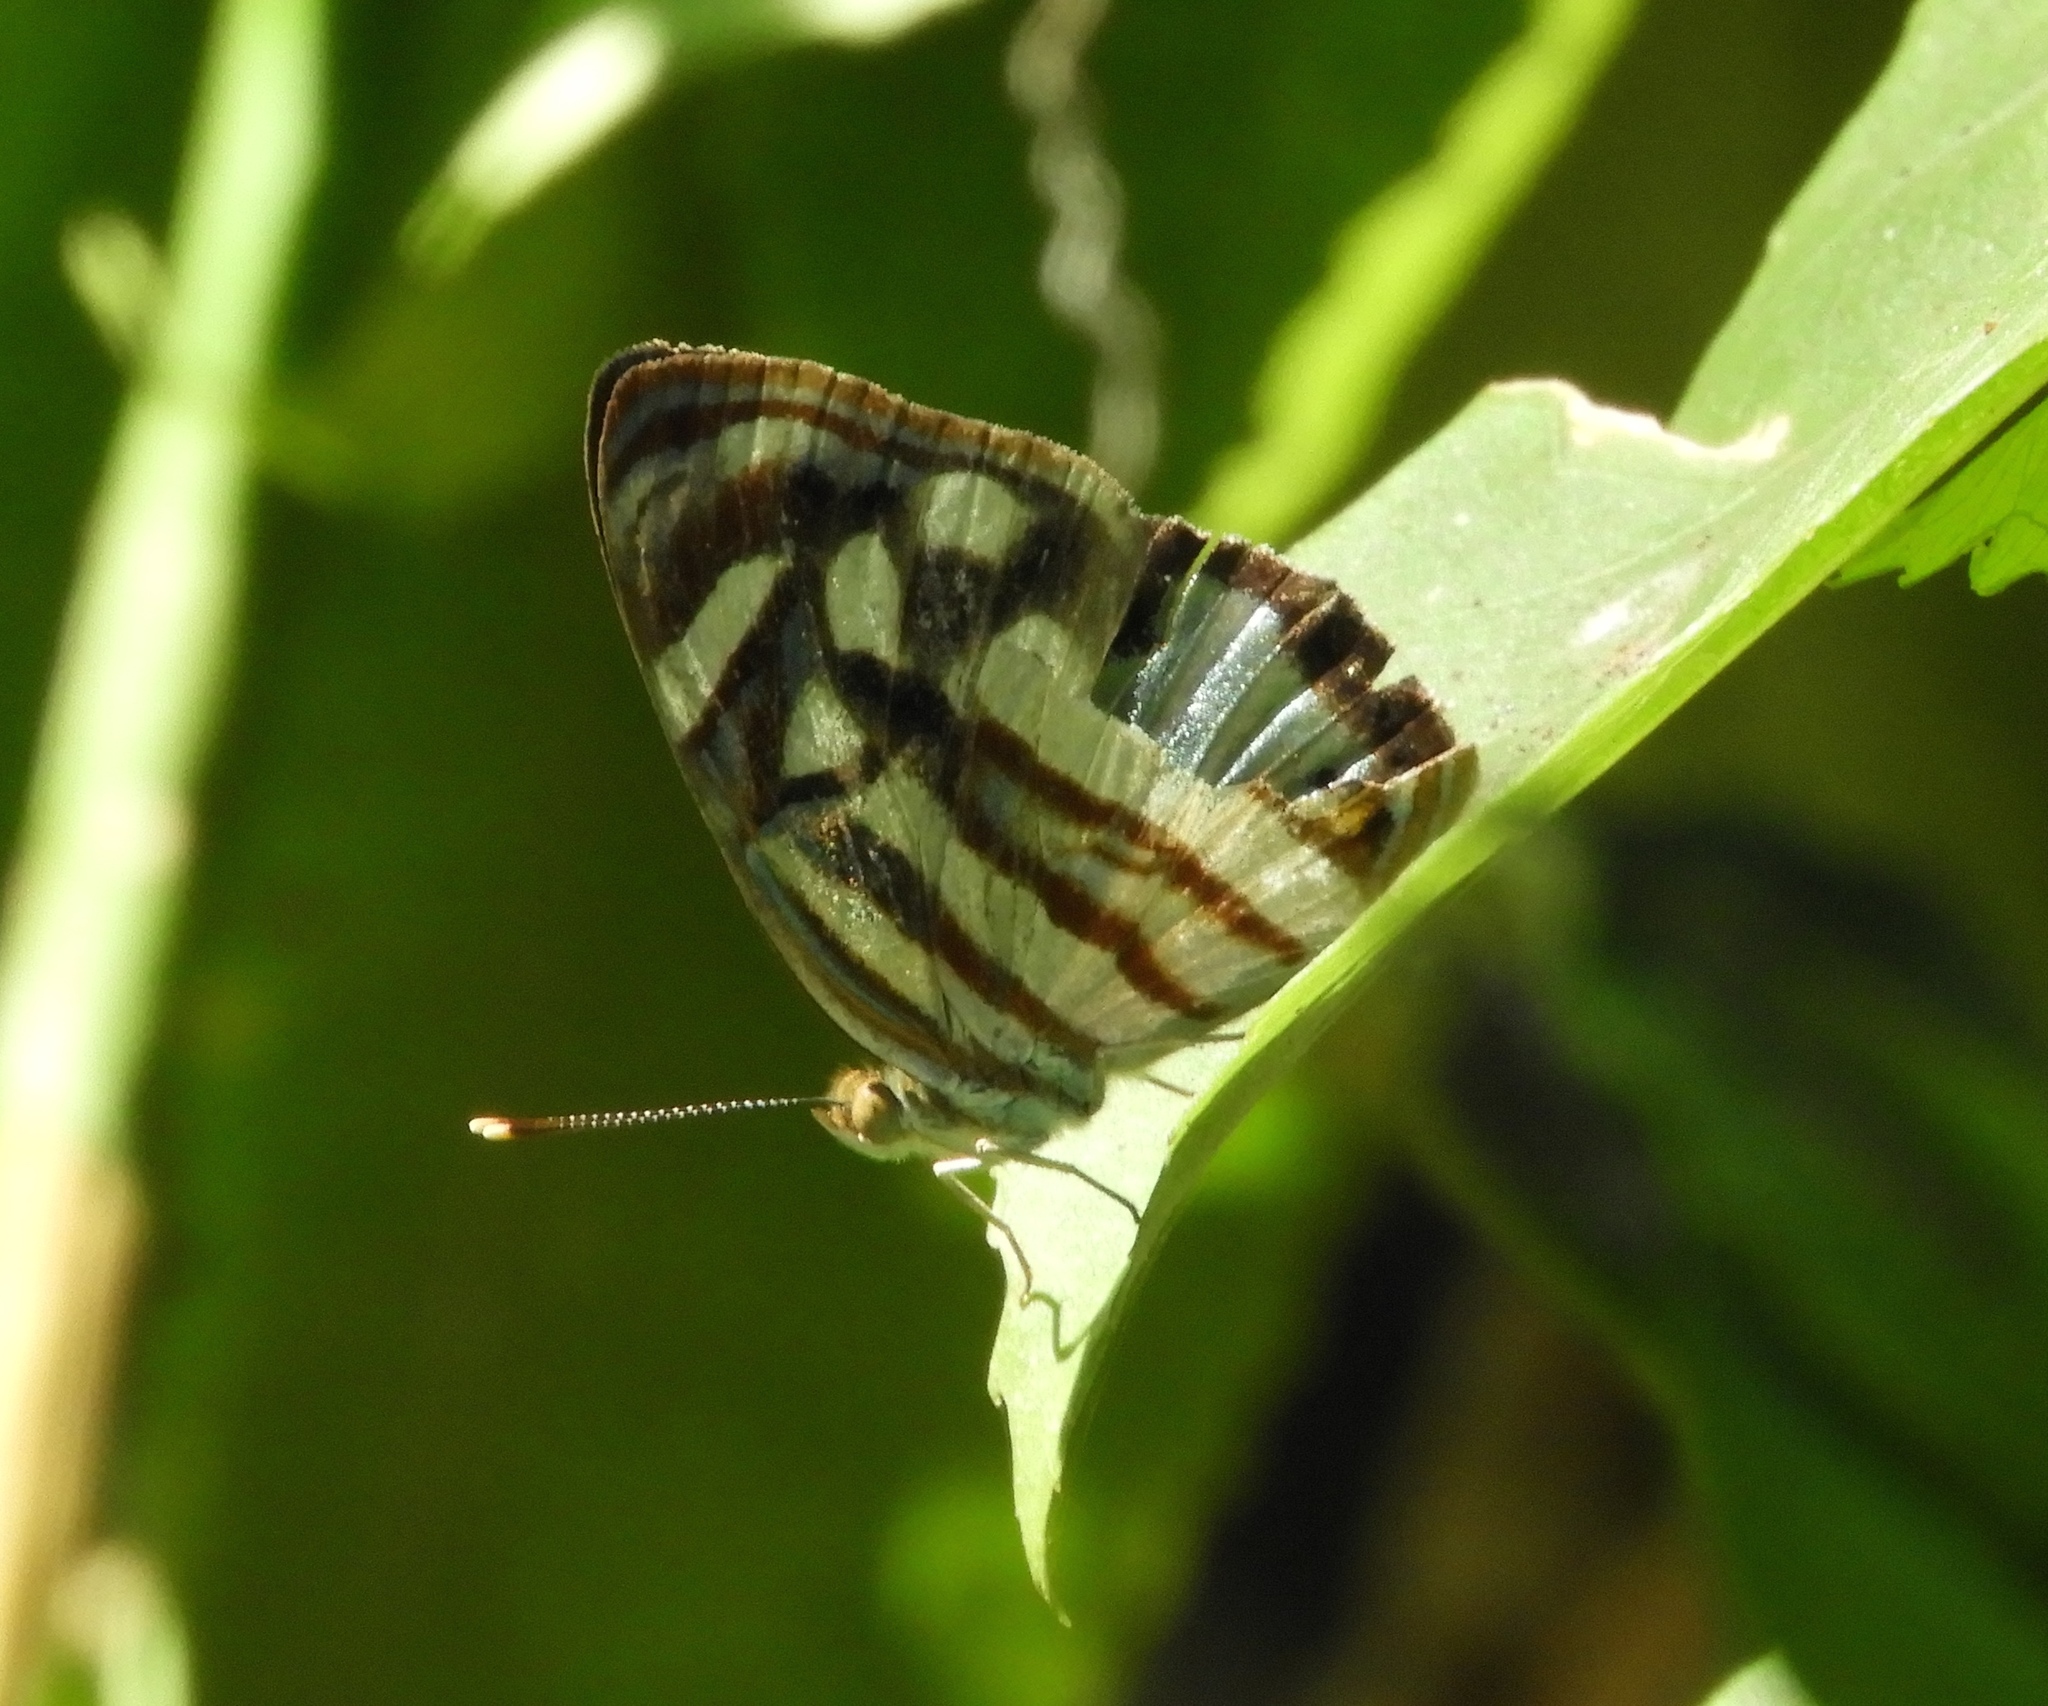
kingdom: Animalia
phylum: Arthropoda
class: Insecta
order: Lepidoptera
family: Nymphalidae
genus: Dynamine
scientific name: Dynamine mylitta
